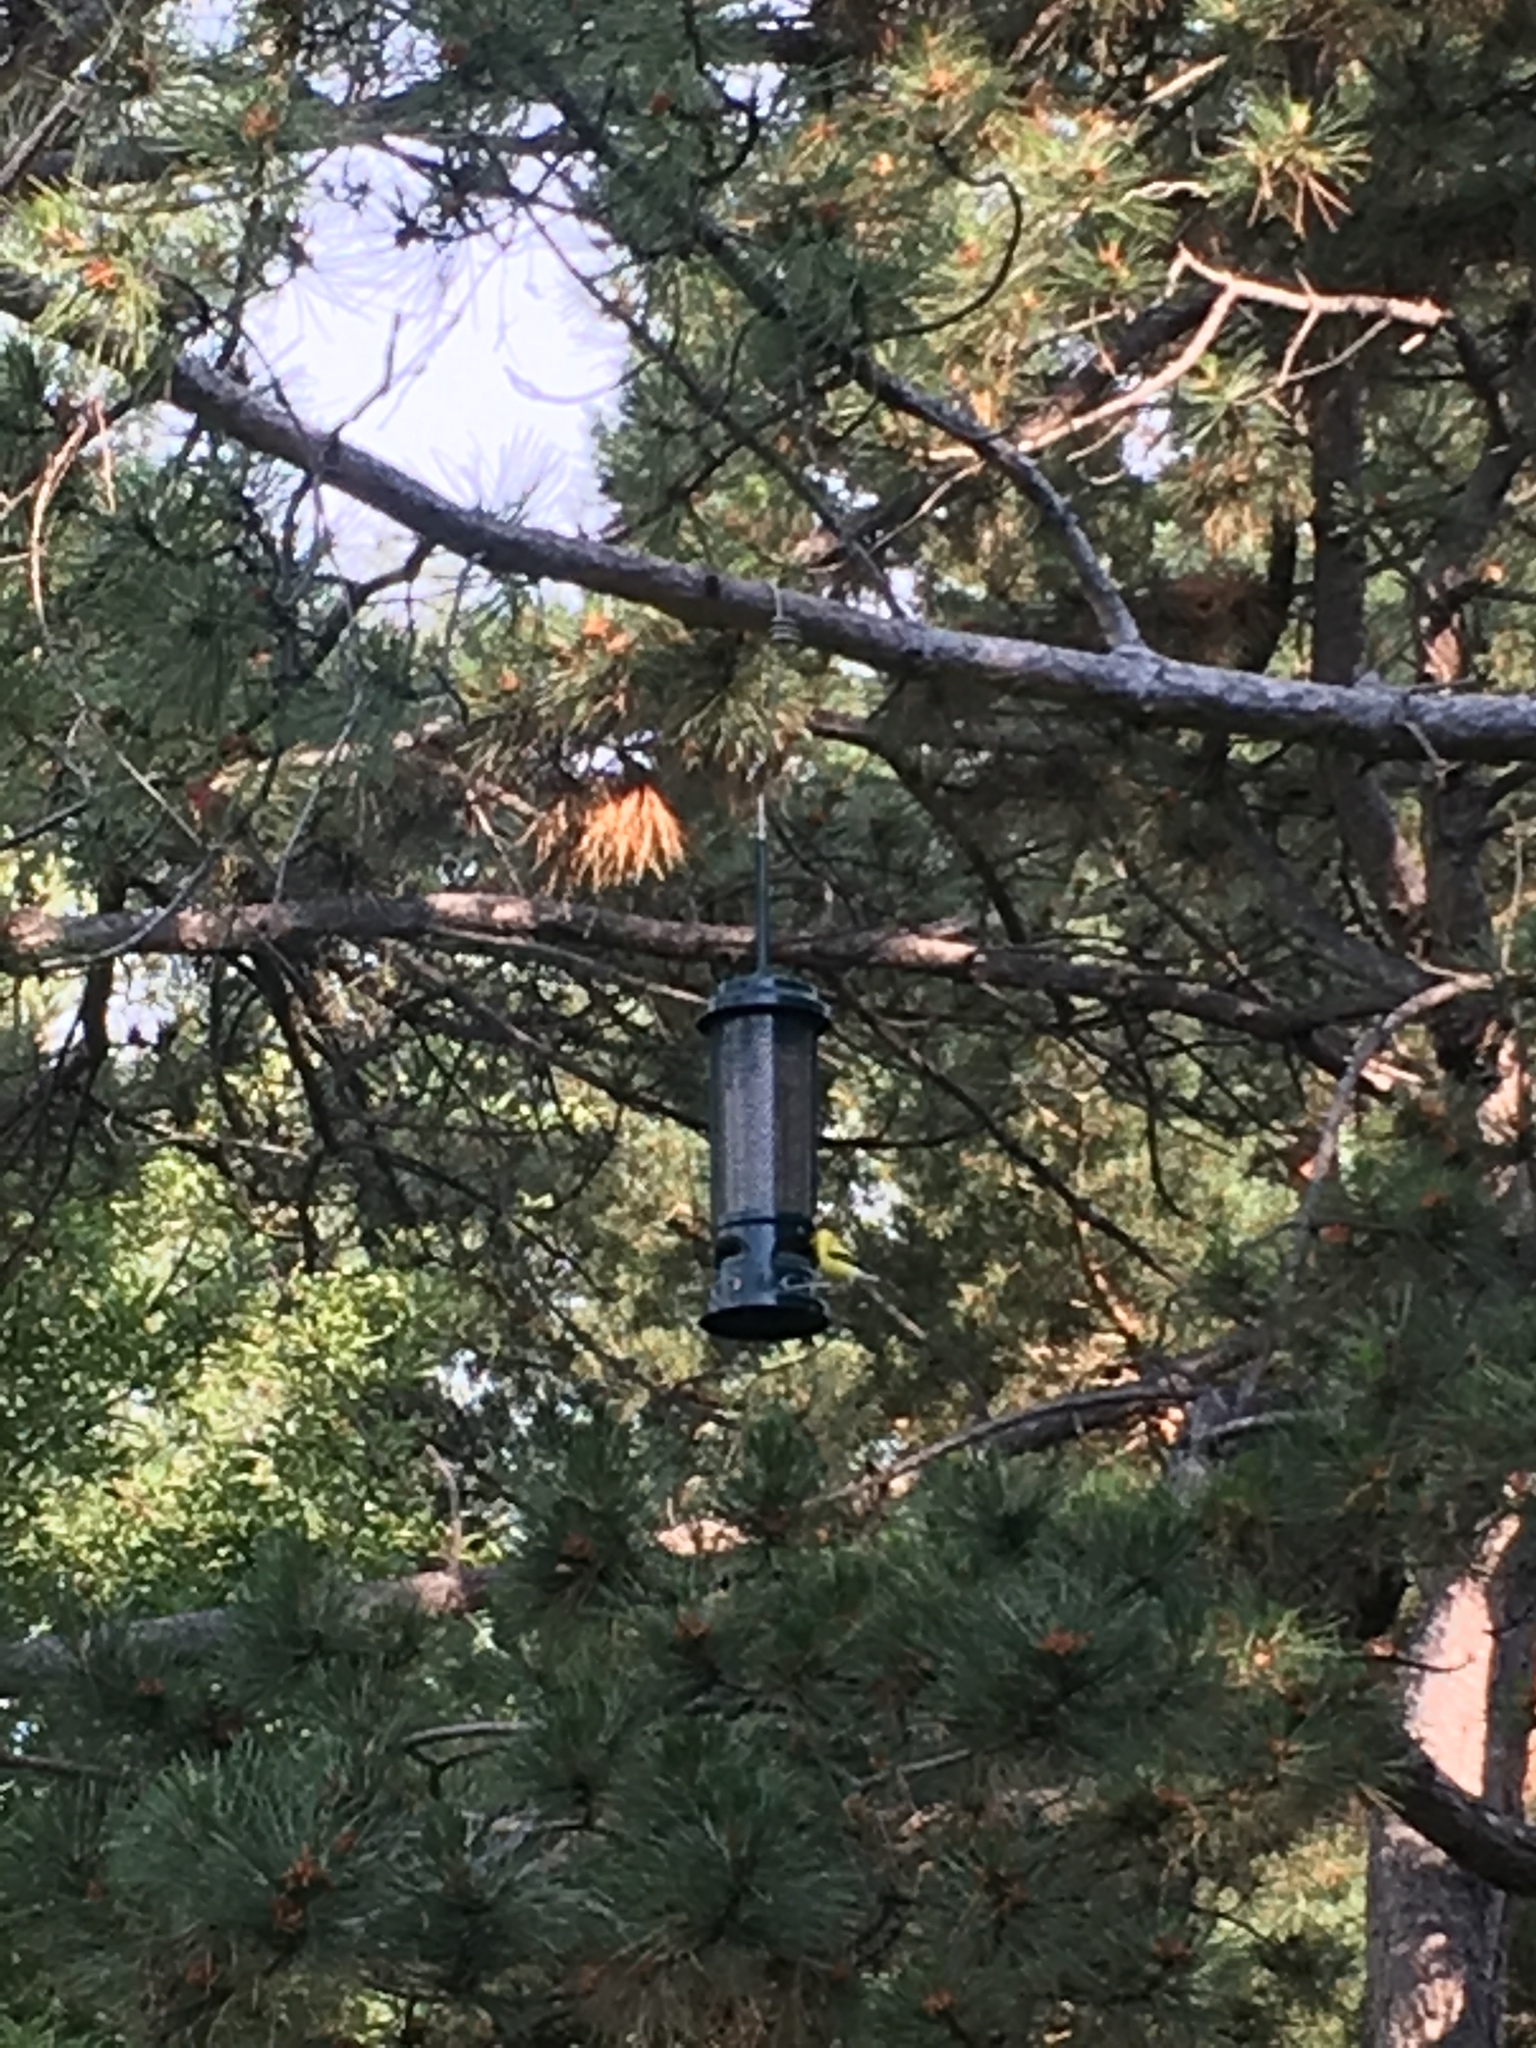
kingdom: Animalia
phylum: Chordata
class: Aves
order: Passeriformes
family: Fringillidae
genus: Spinus
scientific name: Spinus tristis
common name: American goldfinch
